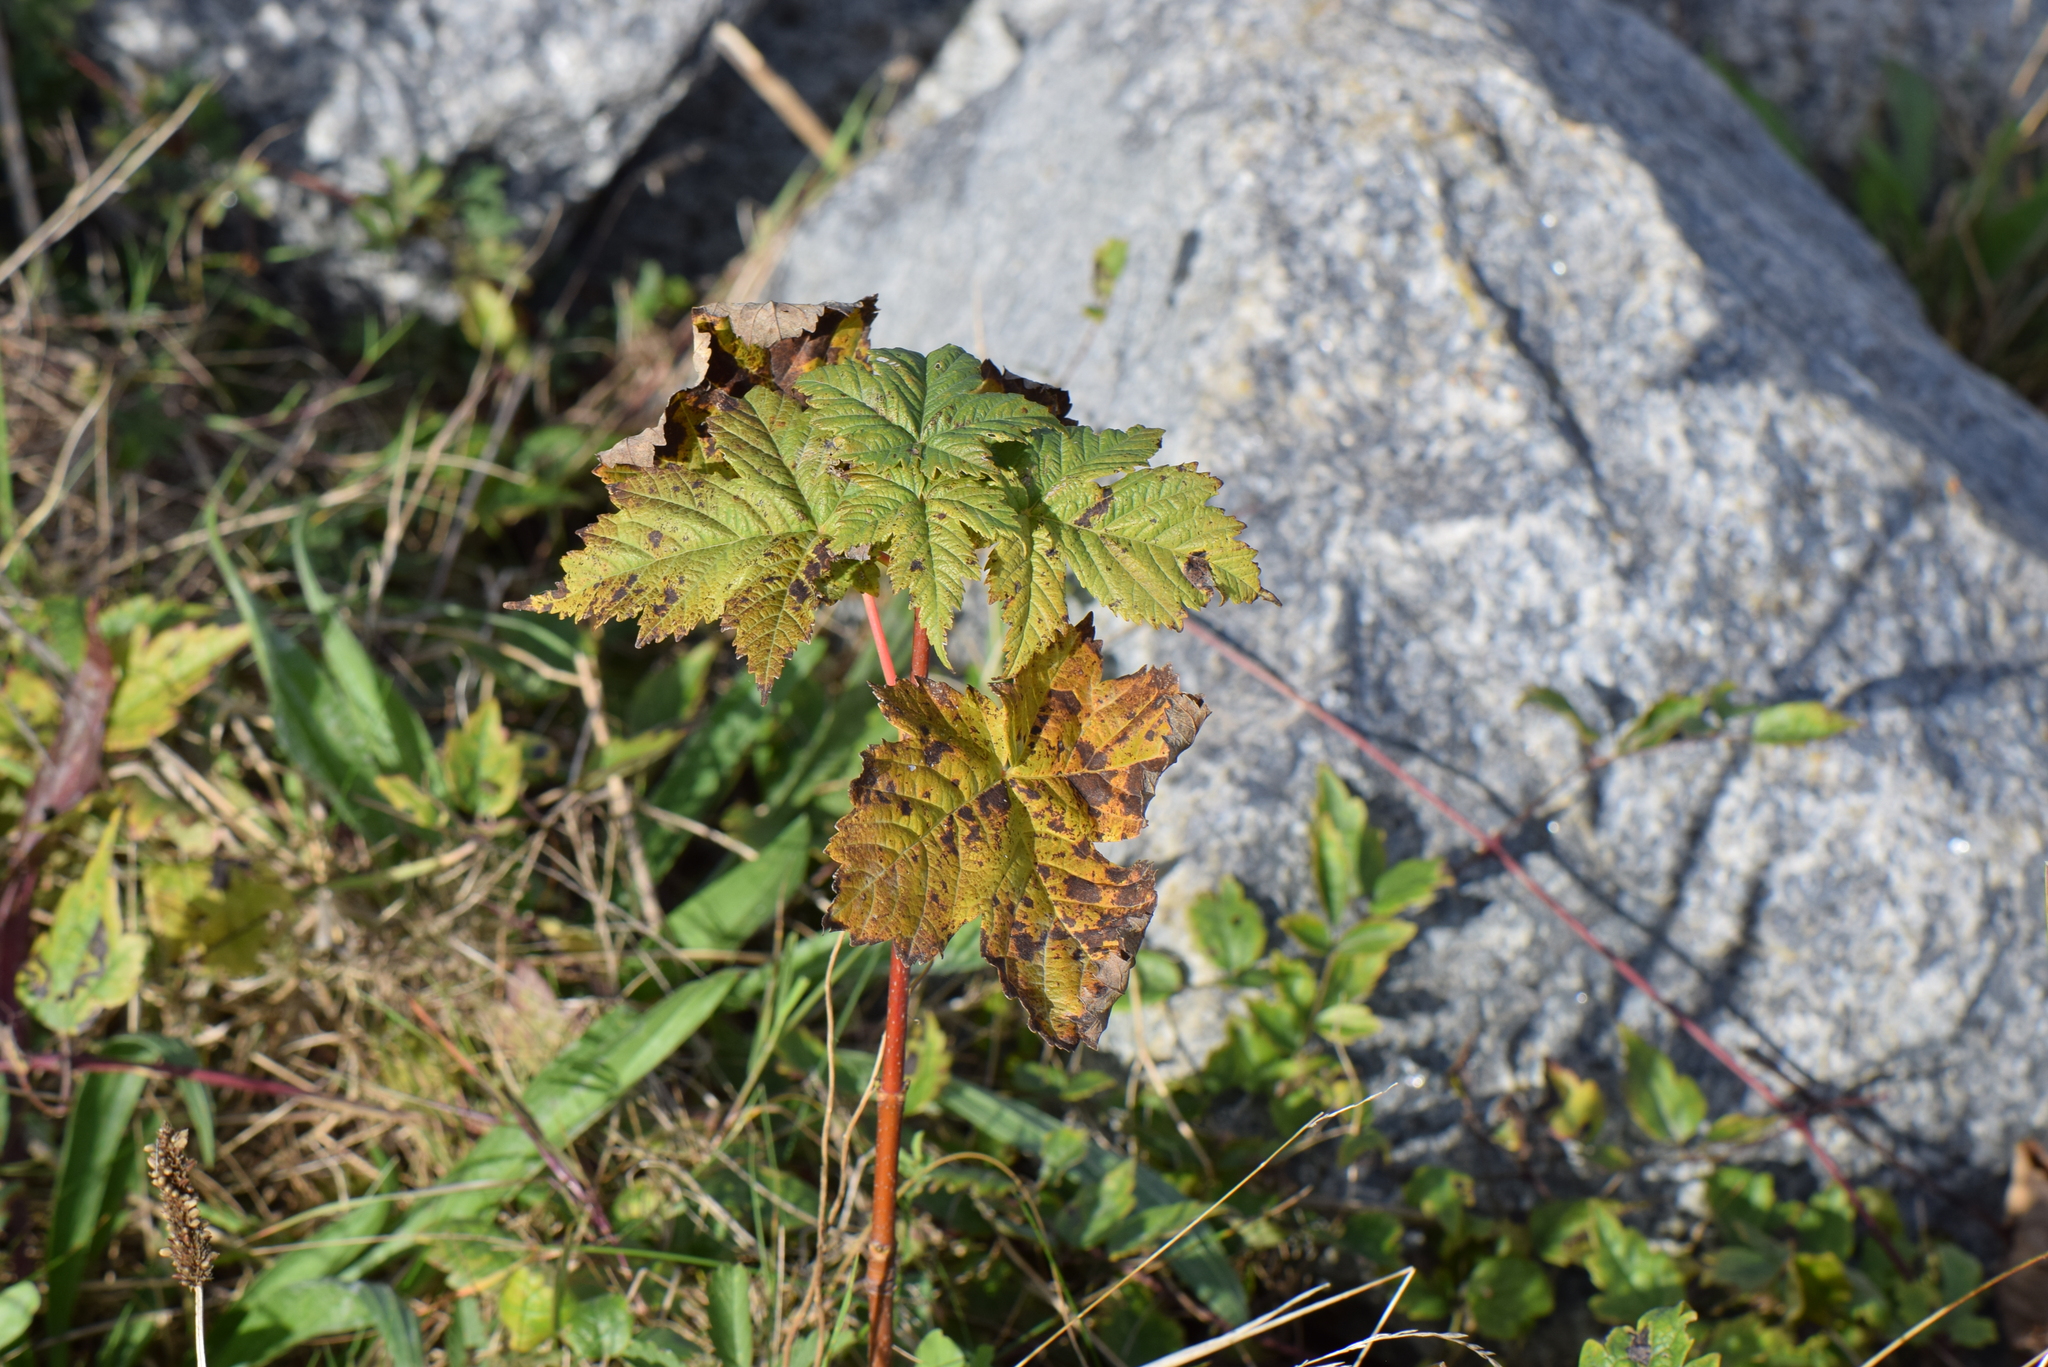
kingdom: Plantae
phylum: Tracheophyta
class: Magnoliopsida
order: Sapindales
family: Sapindaceae
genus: Acer
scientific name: Acer pseudoplatanus
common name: Sycamore
